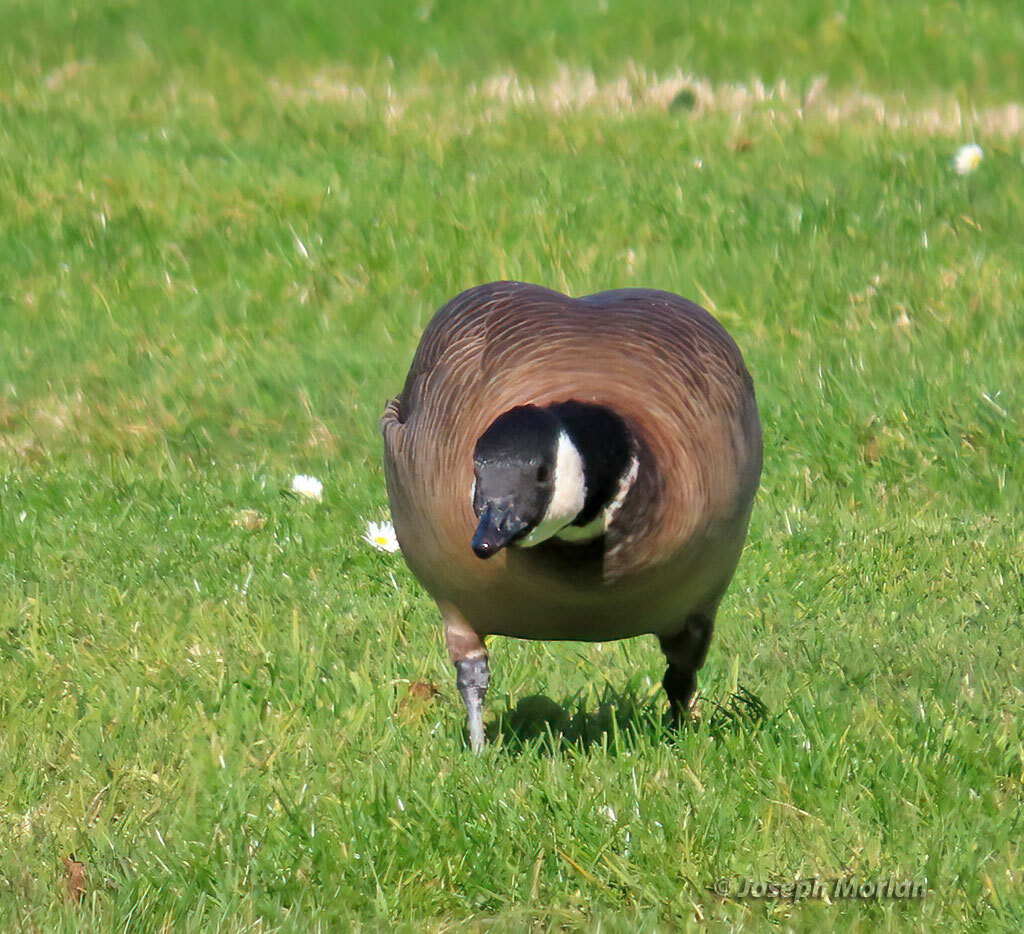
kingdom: Animalia
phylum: Chordata
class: Aves
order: Anseriformes
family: Anatidae
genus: Branta
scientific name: Branta hutchinsii
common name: Cackling goose
